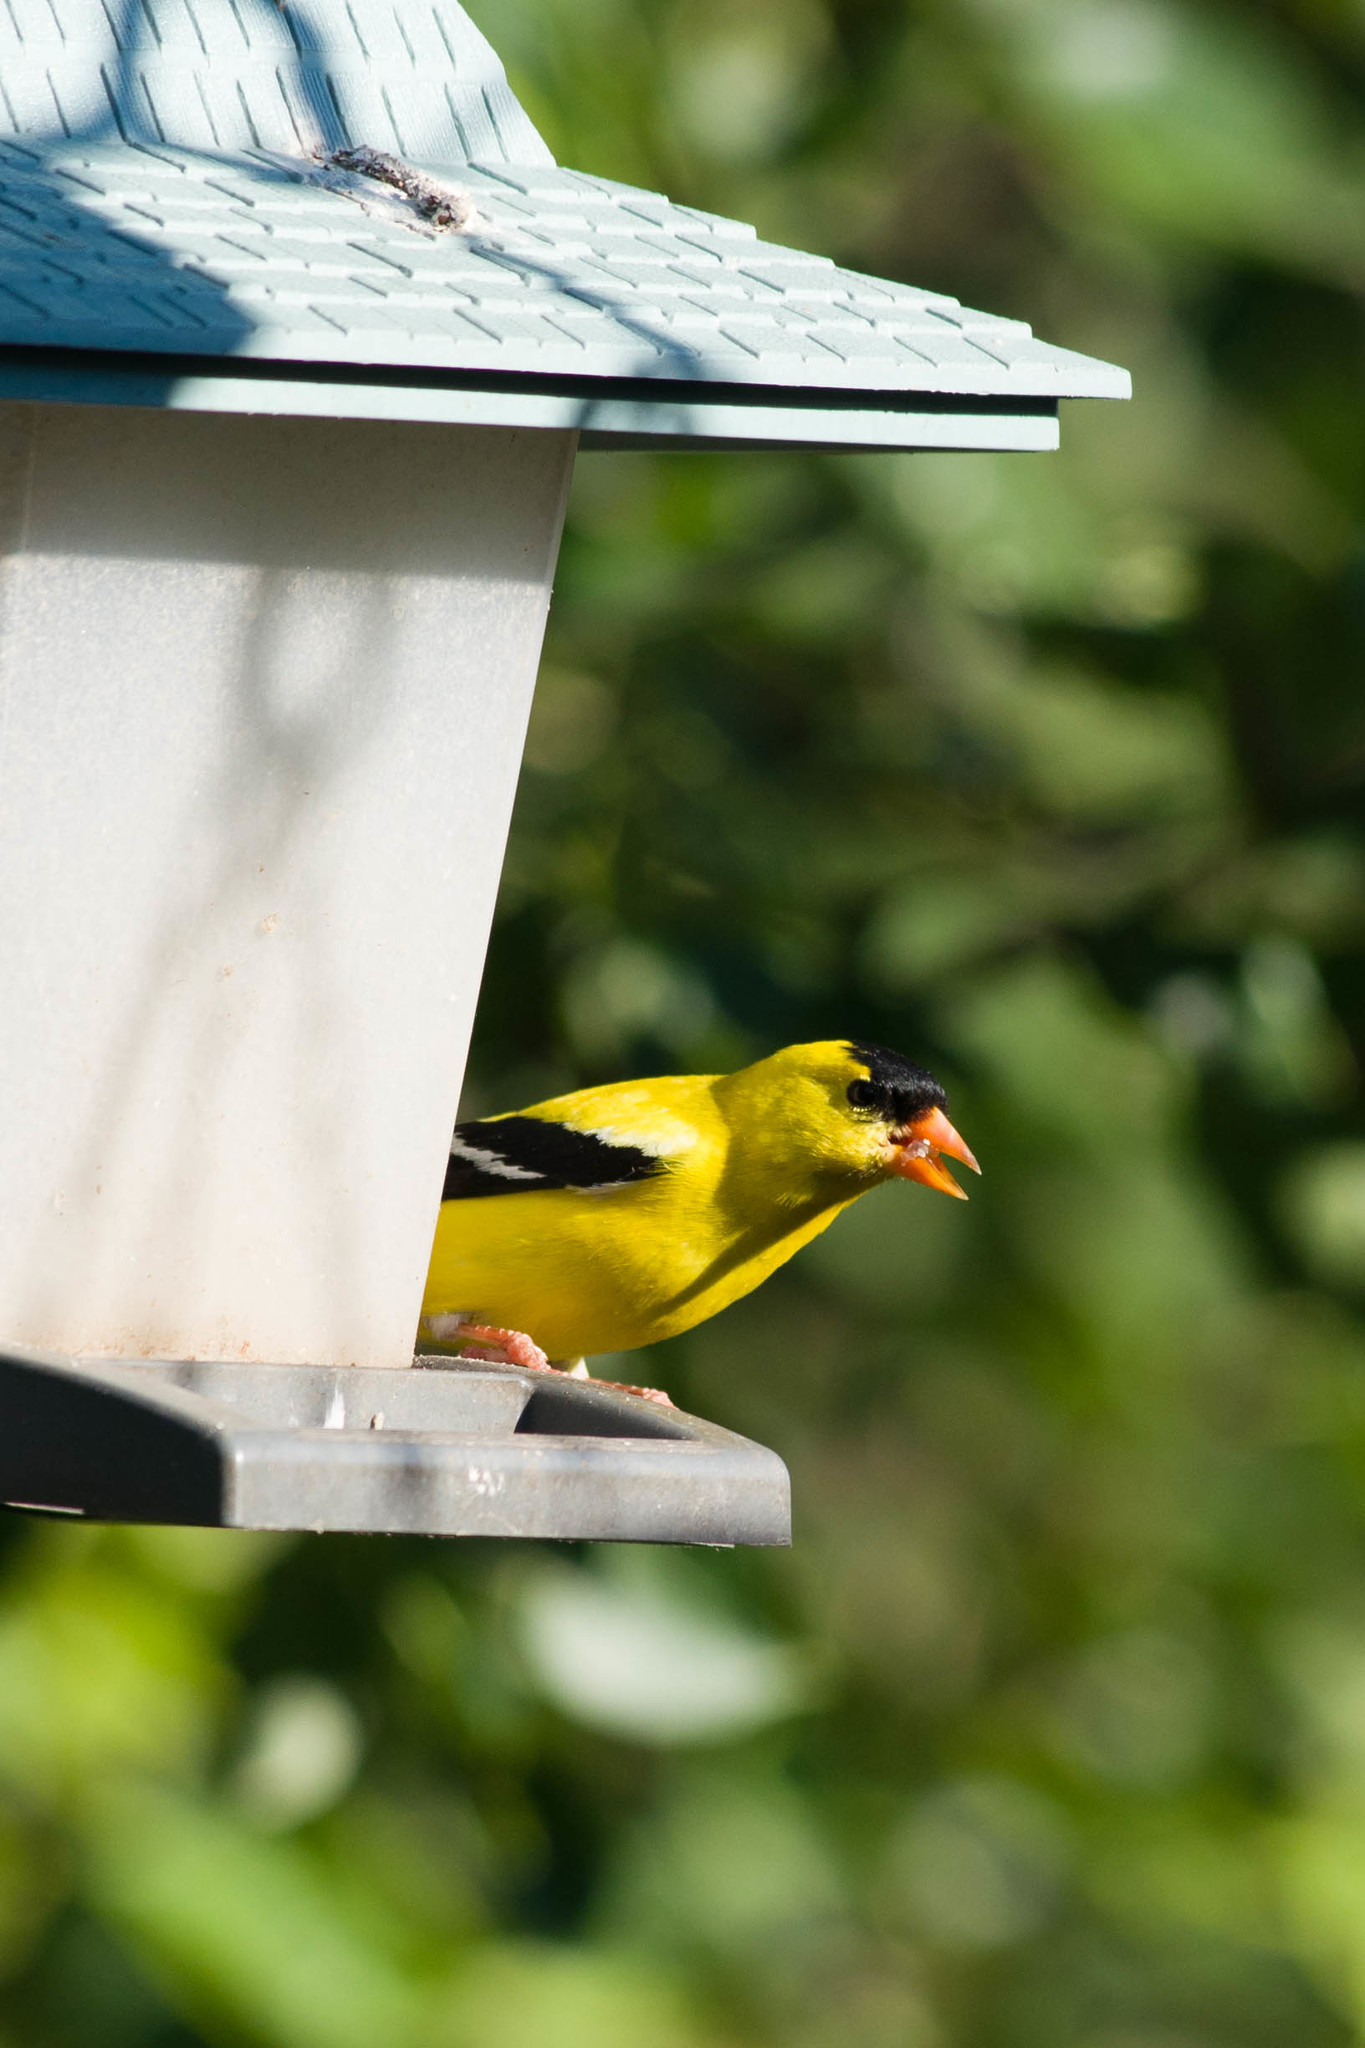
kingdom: Animalia
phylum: Chordata
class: Aves
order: Passeriformes
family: Fringillidae
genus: Spinus
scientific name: Spinus tristis
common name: American goldfinch
